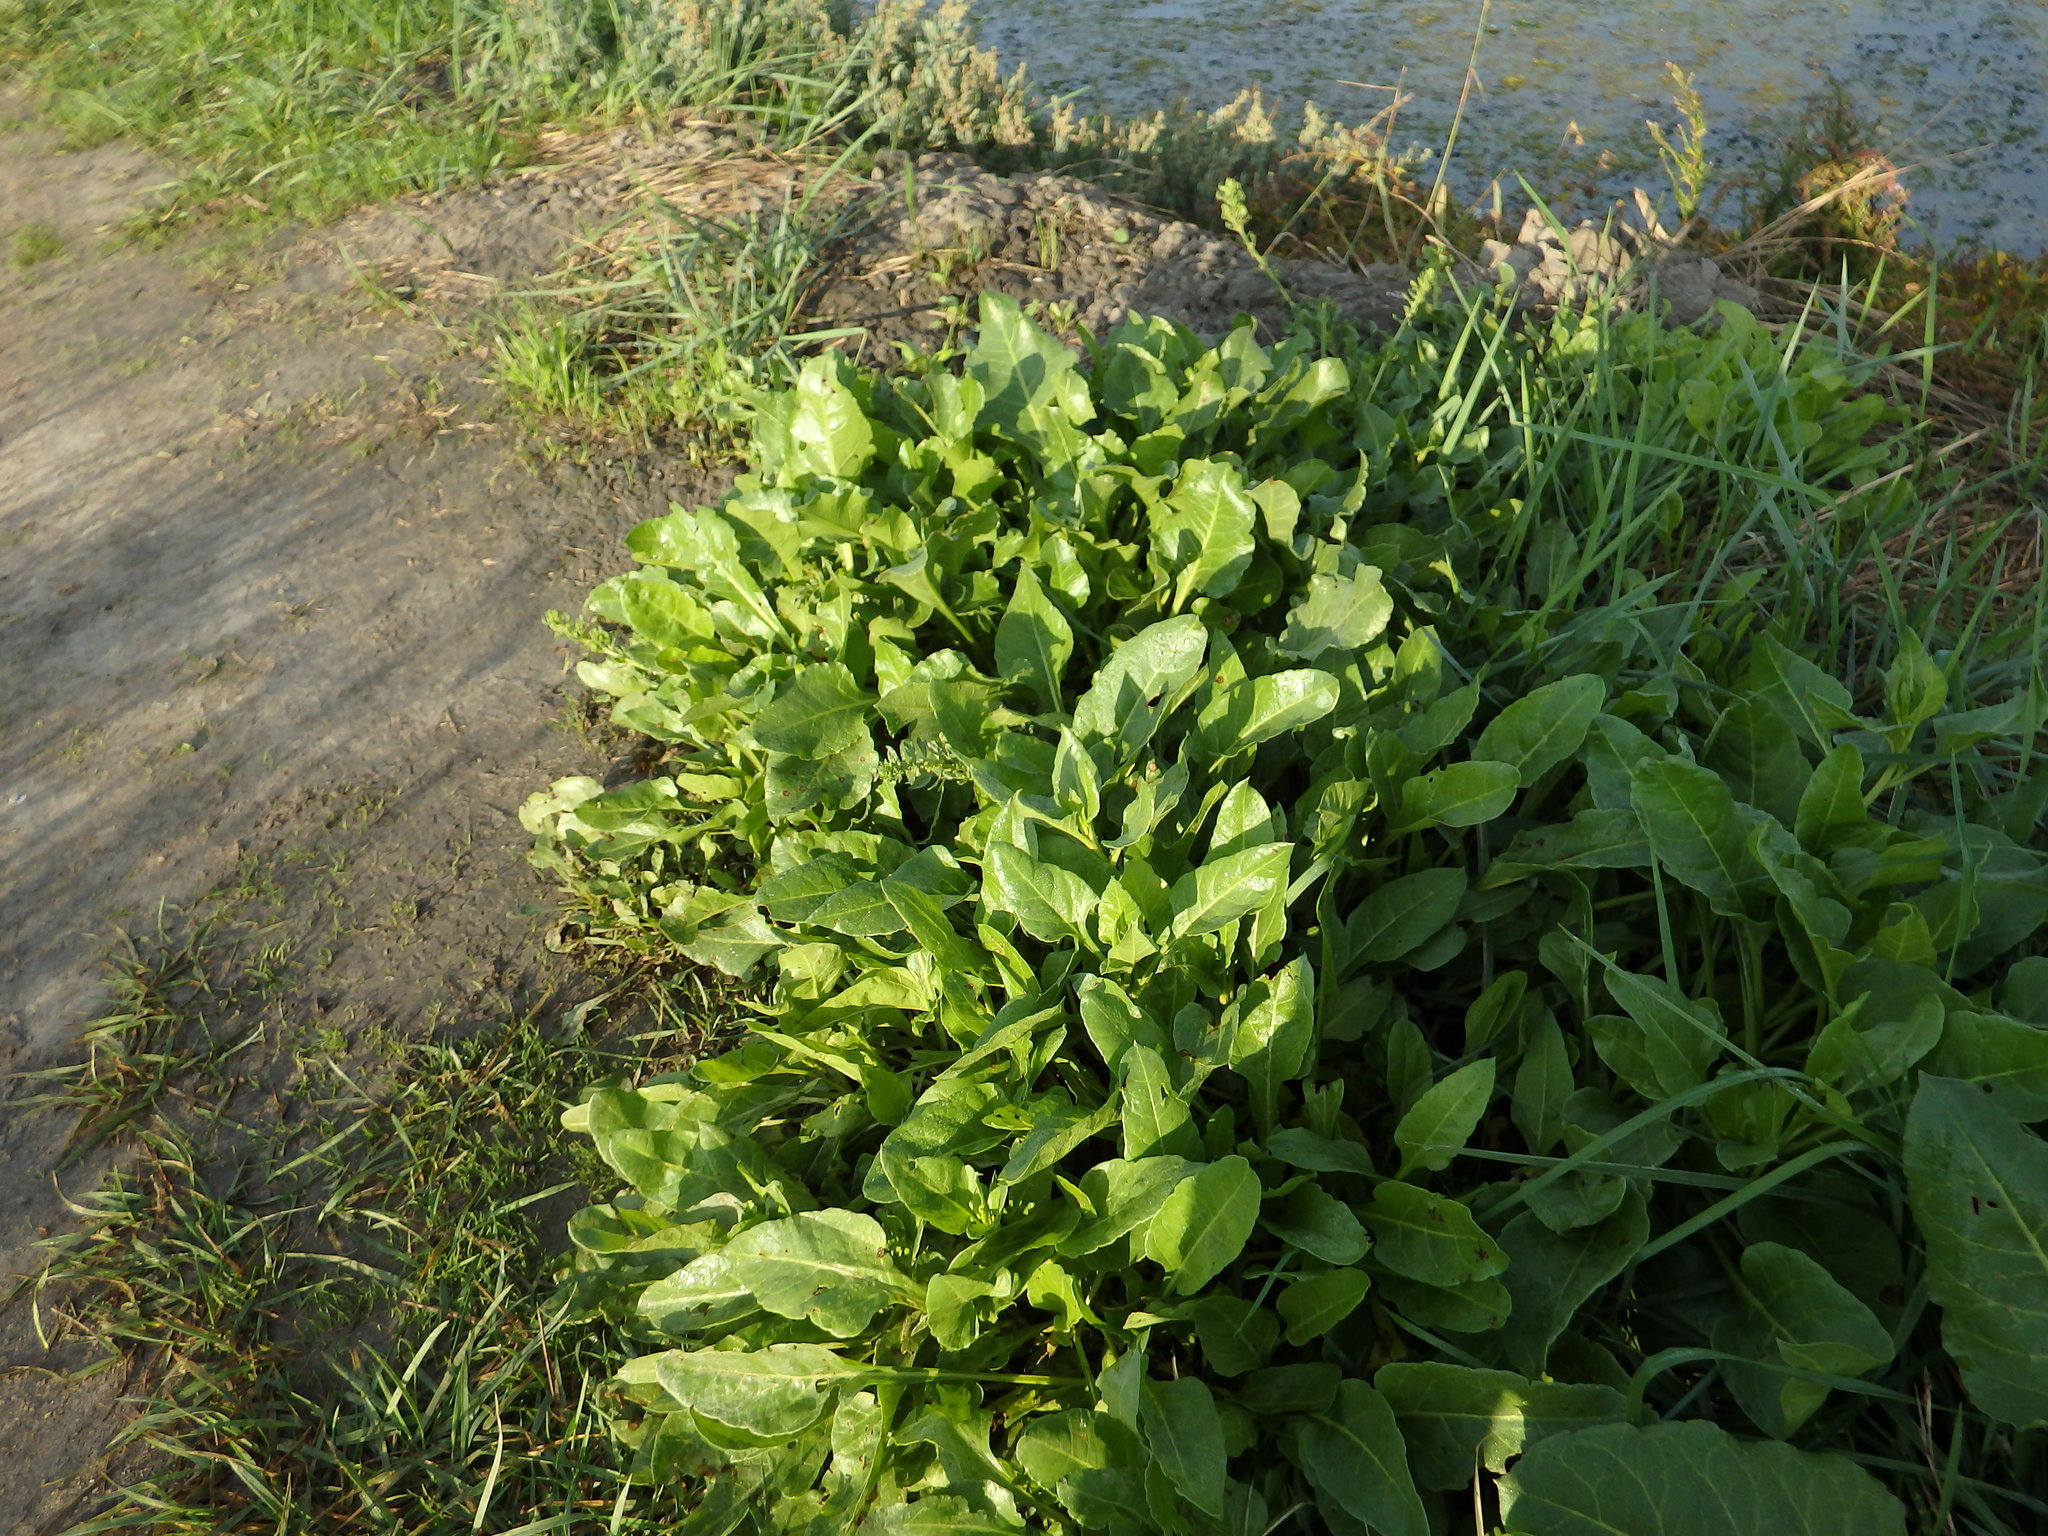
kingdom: Plantae
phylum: Tracheophyta
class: Magnoliopsida
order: Caryophyllales
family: Amaranthaceae
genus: Beta
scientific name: Beta vulgaris
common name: Beet
